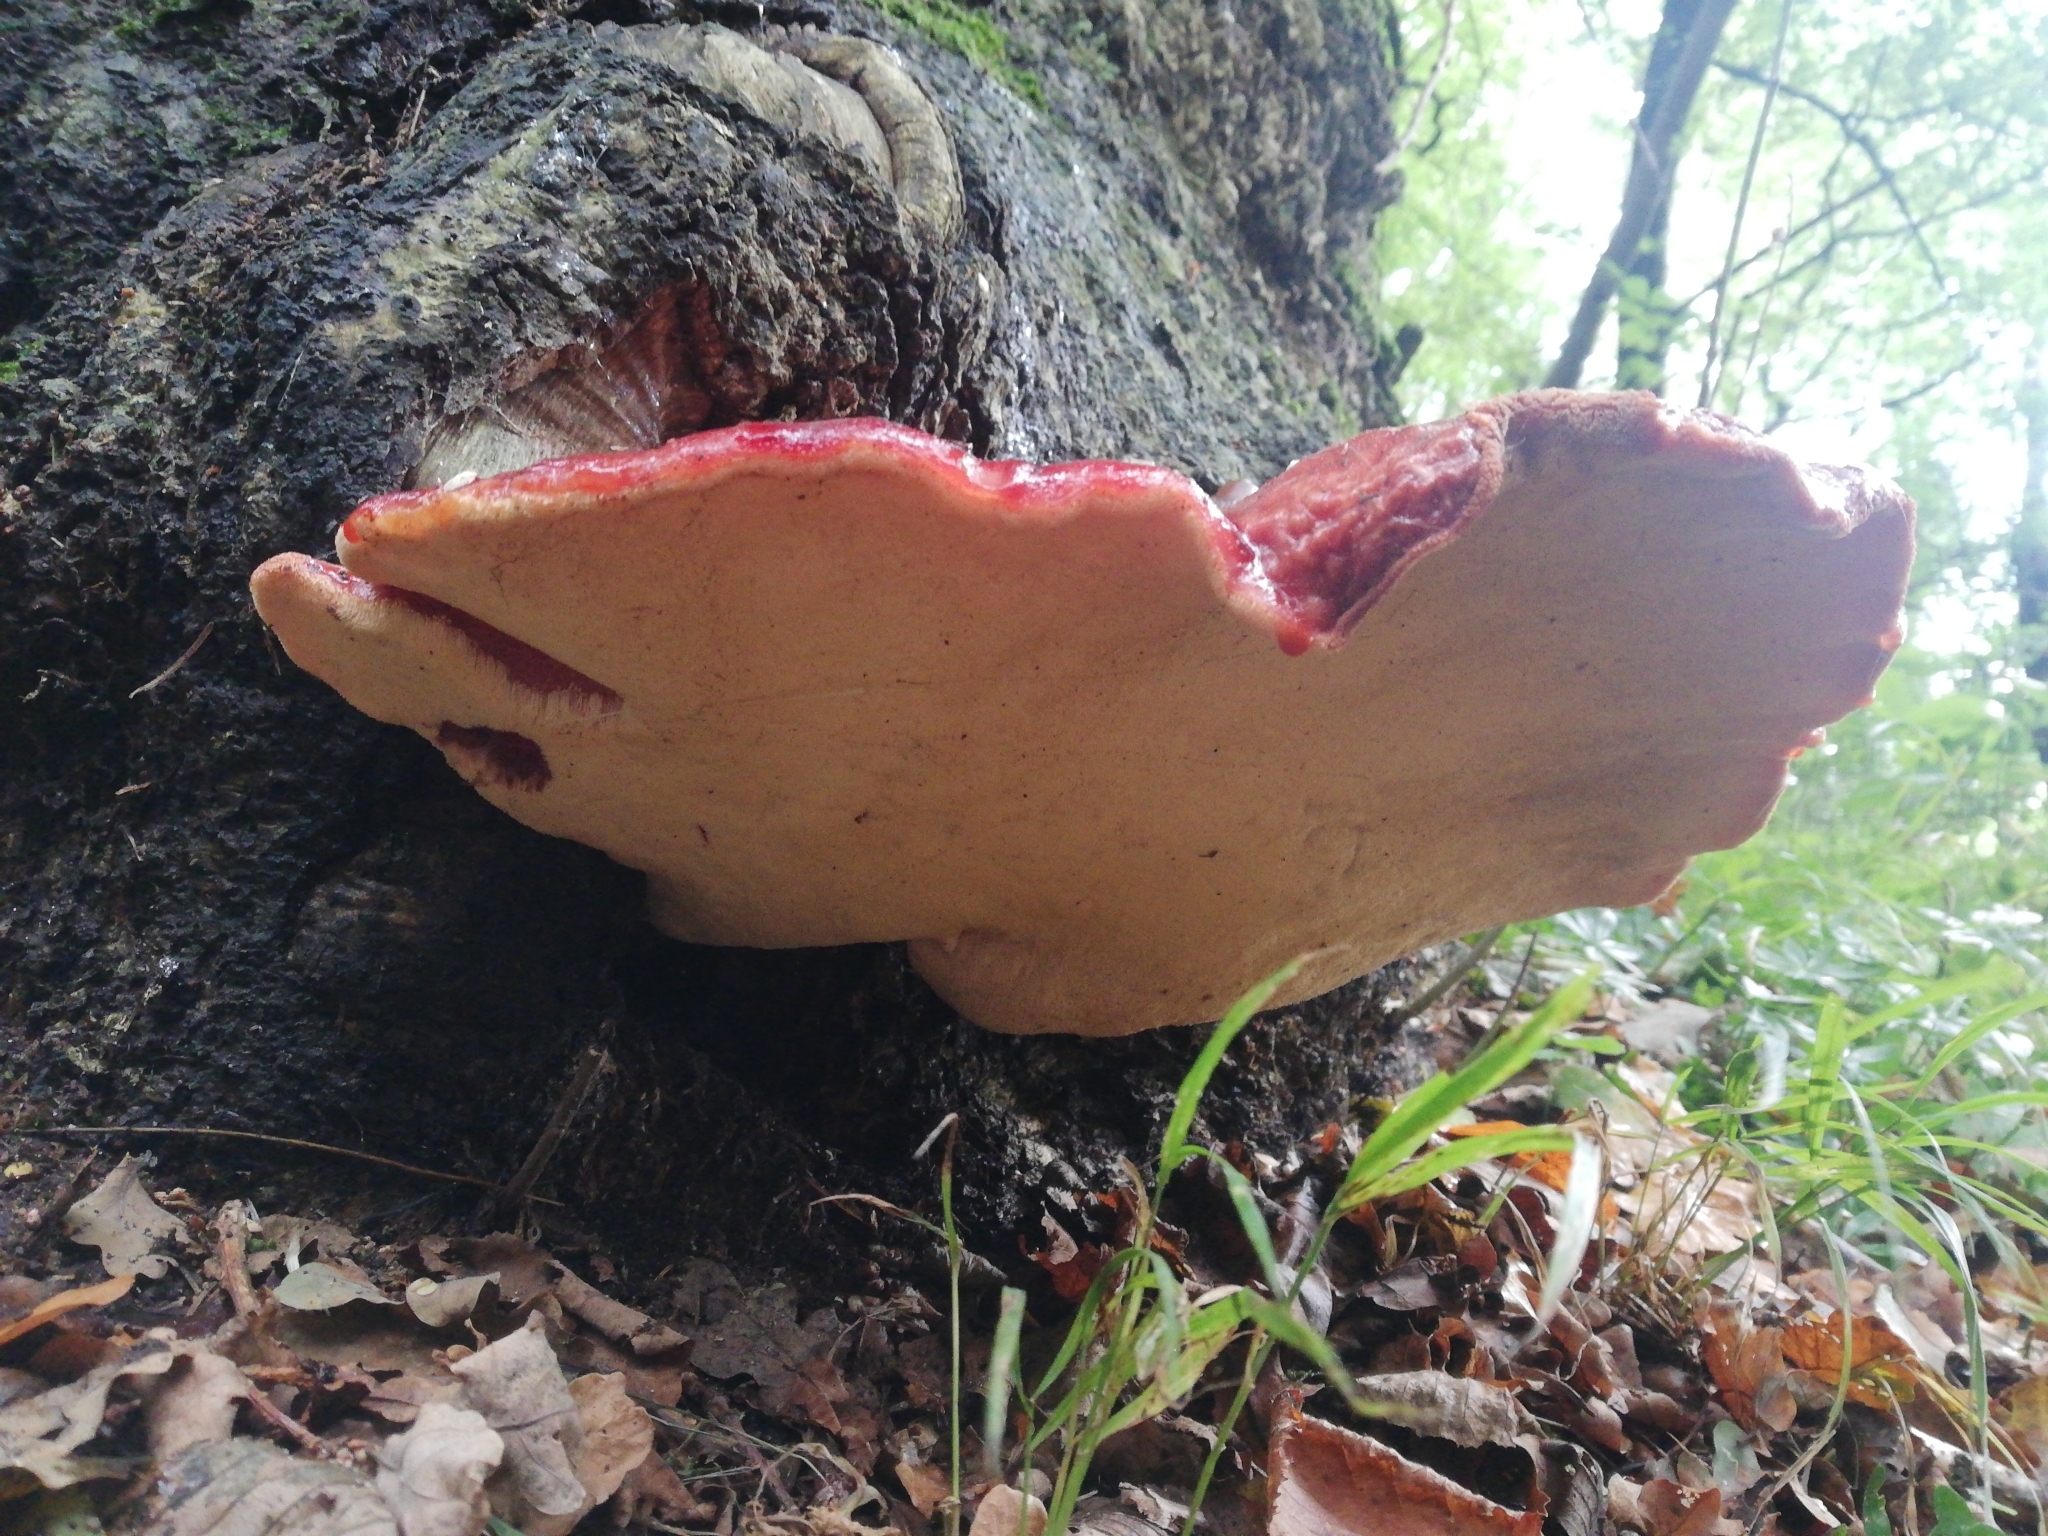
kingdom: Fungi
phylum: Basidiomycota
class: Agaricomycetes
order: Agaricales
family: Fistulinaceae
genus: Fistulina
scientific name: Fistulina hepatica
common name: Beef-steak fungus
